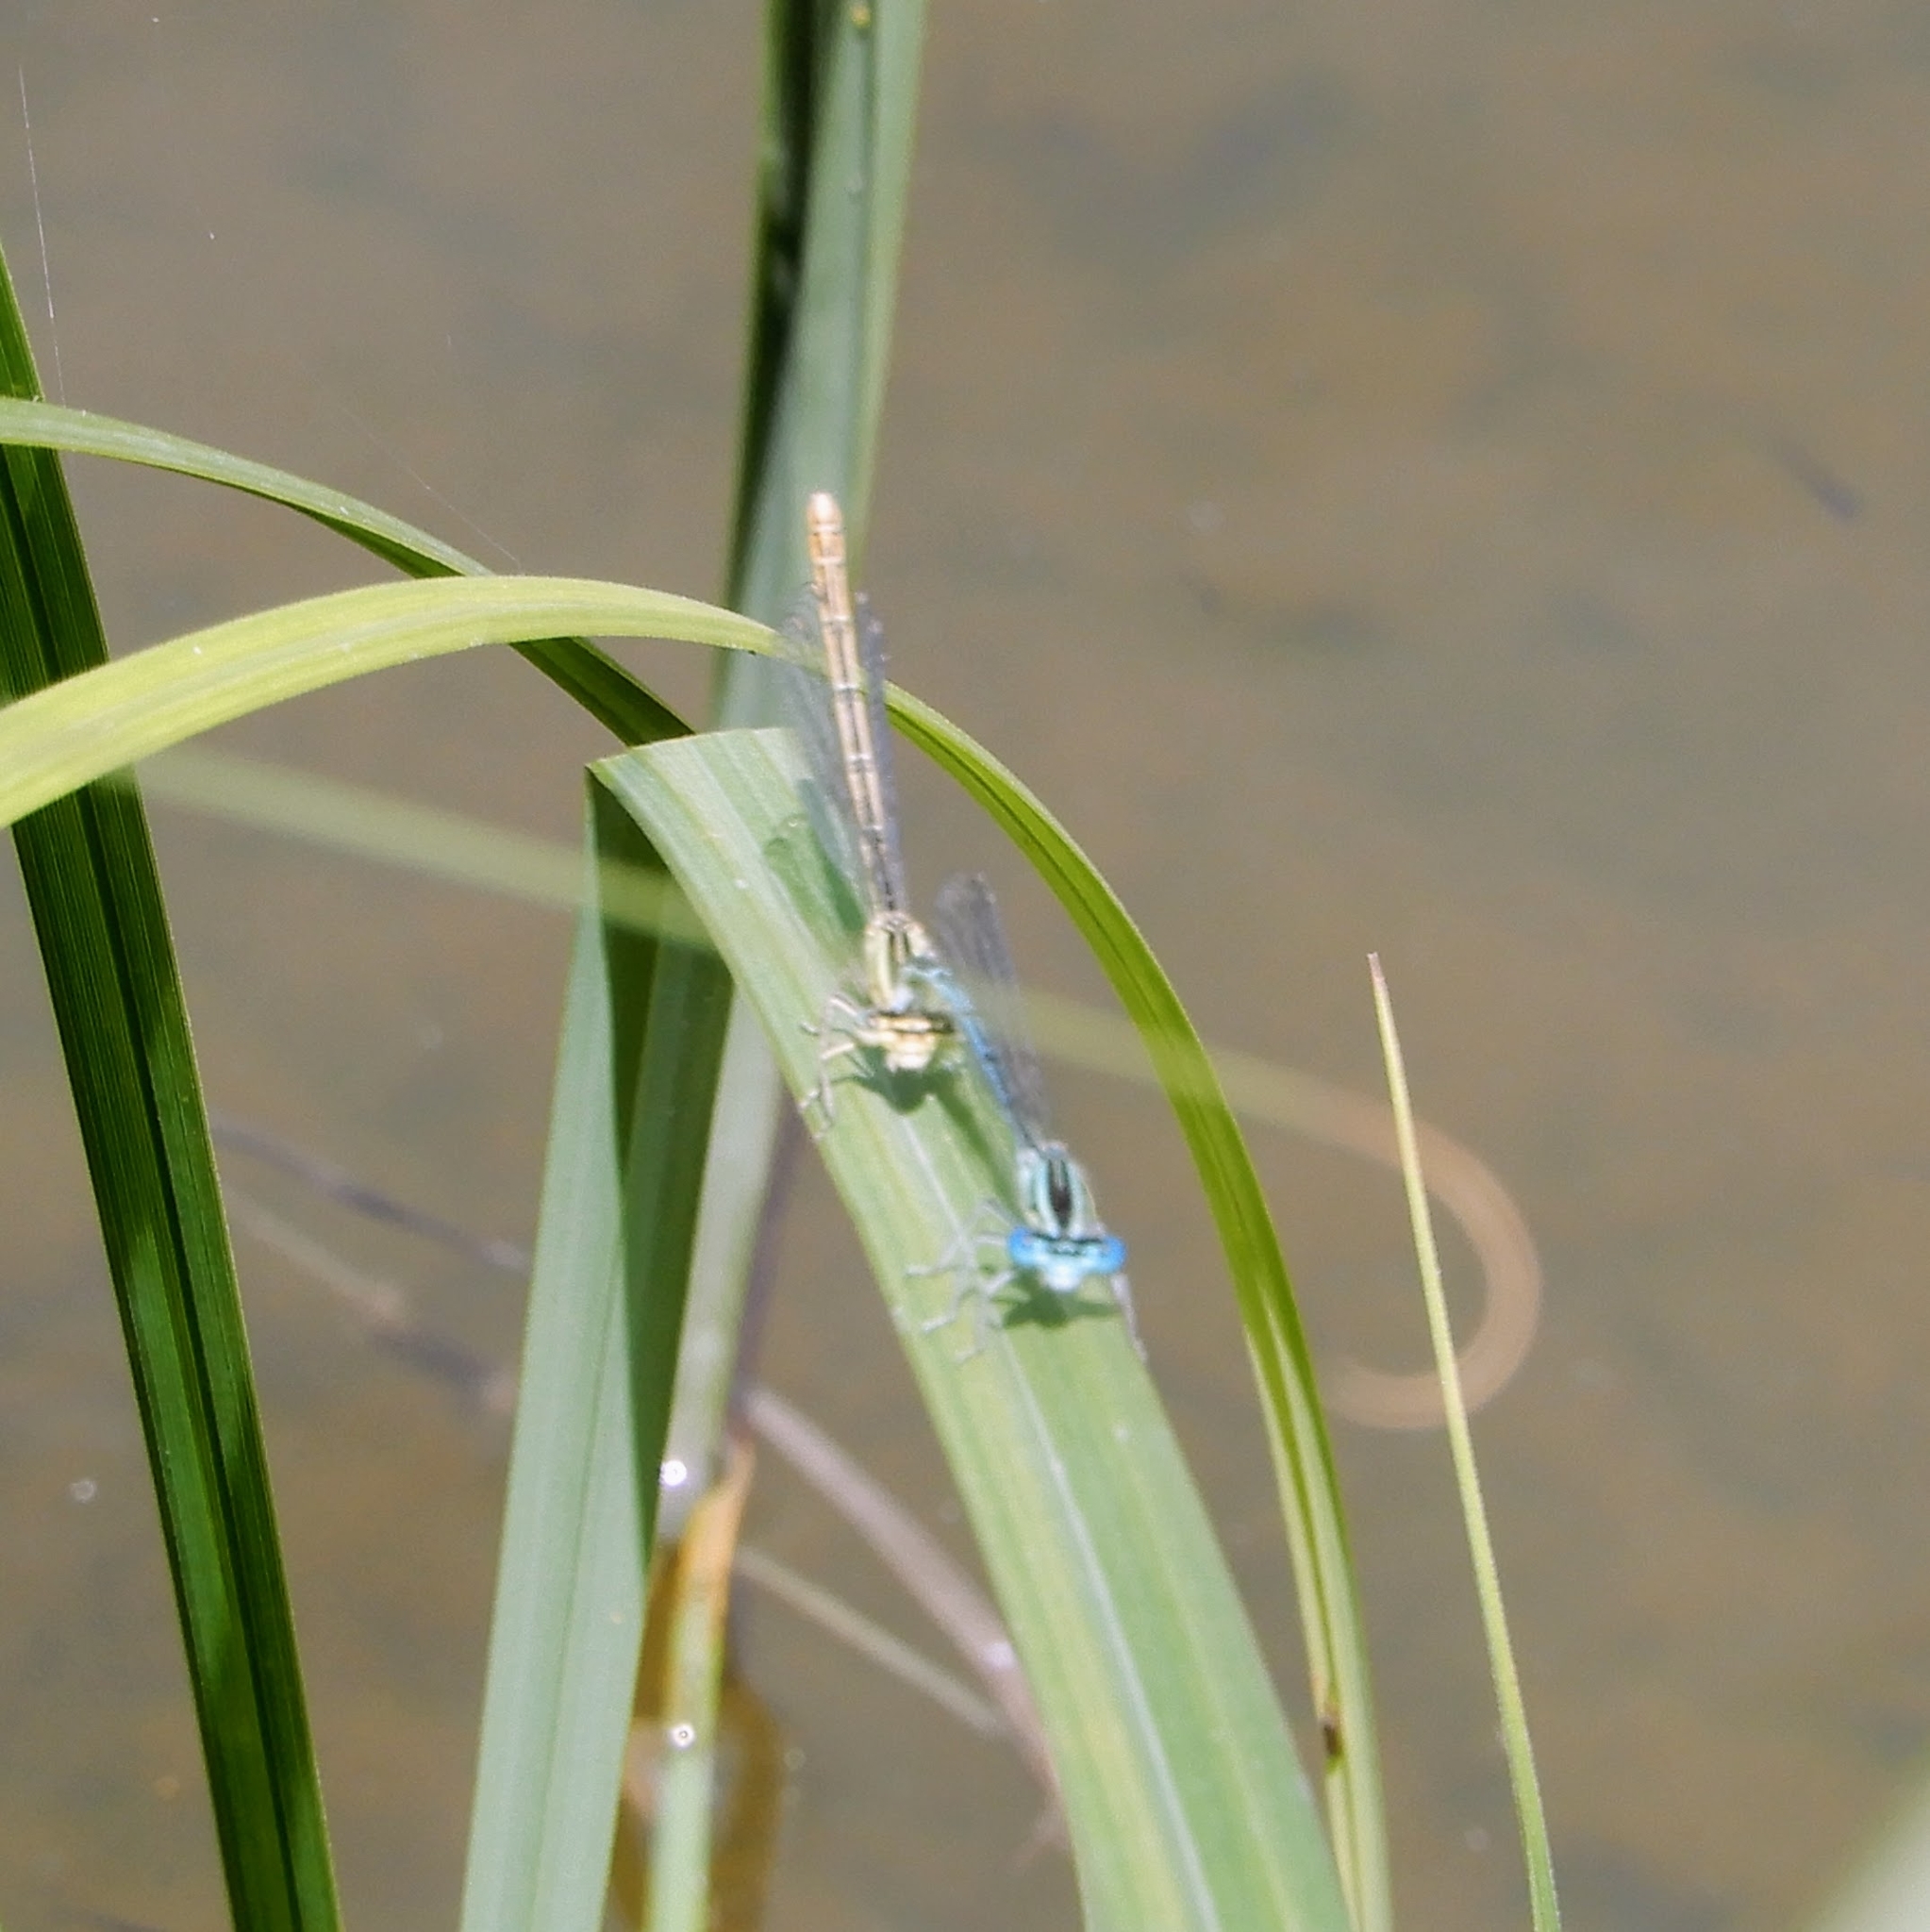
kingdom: Animalia
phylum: Arthropoda
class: Insecta
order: Odonata
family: Platycnemididae
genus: Platycnemis
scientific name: Platycnemis pennipes
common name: White-legged damselfly
